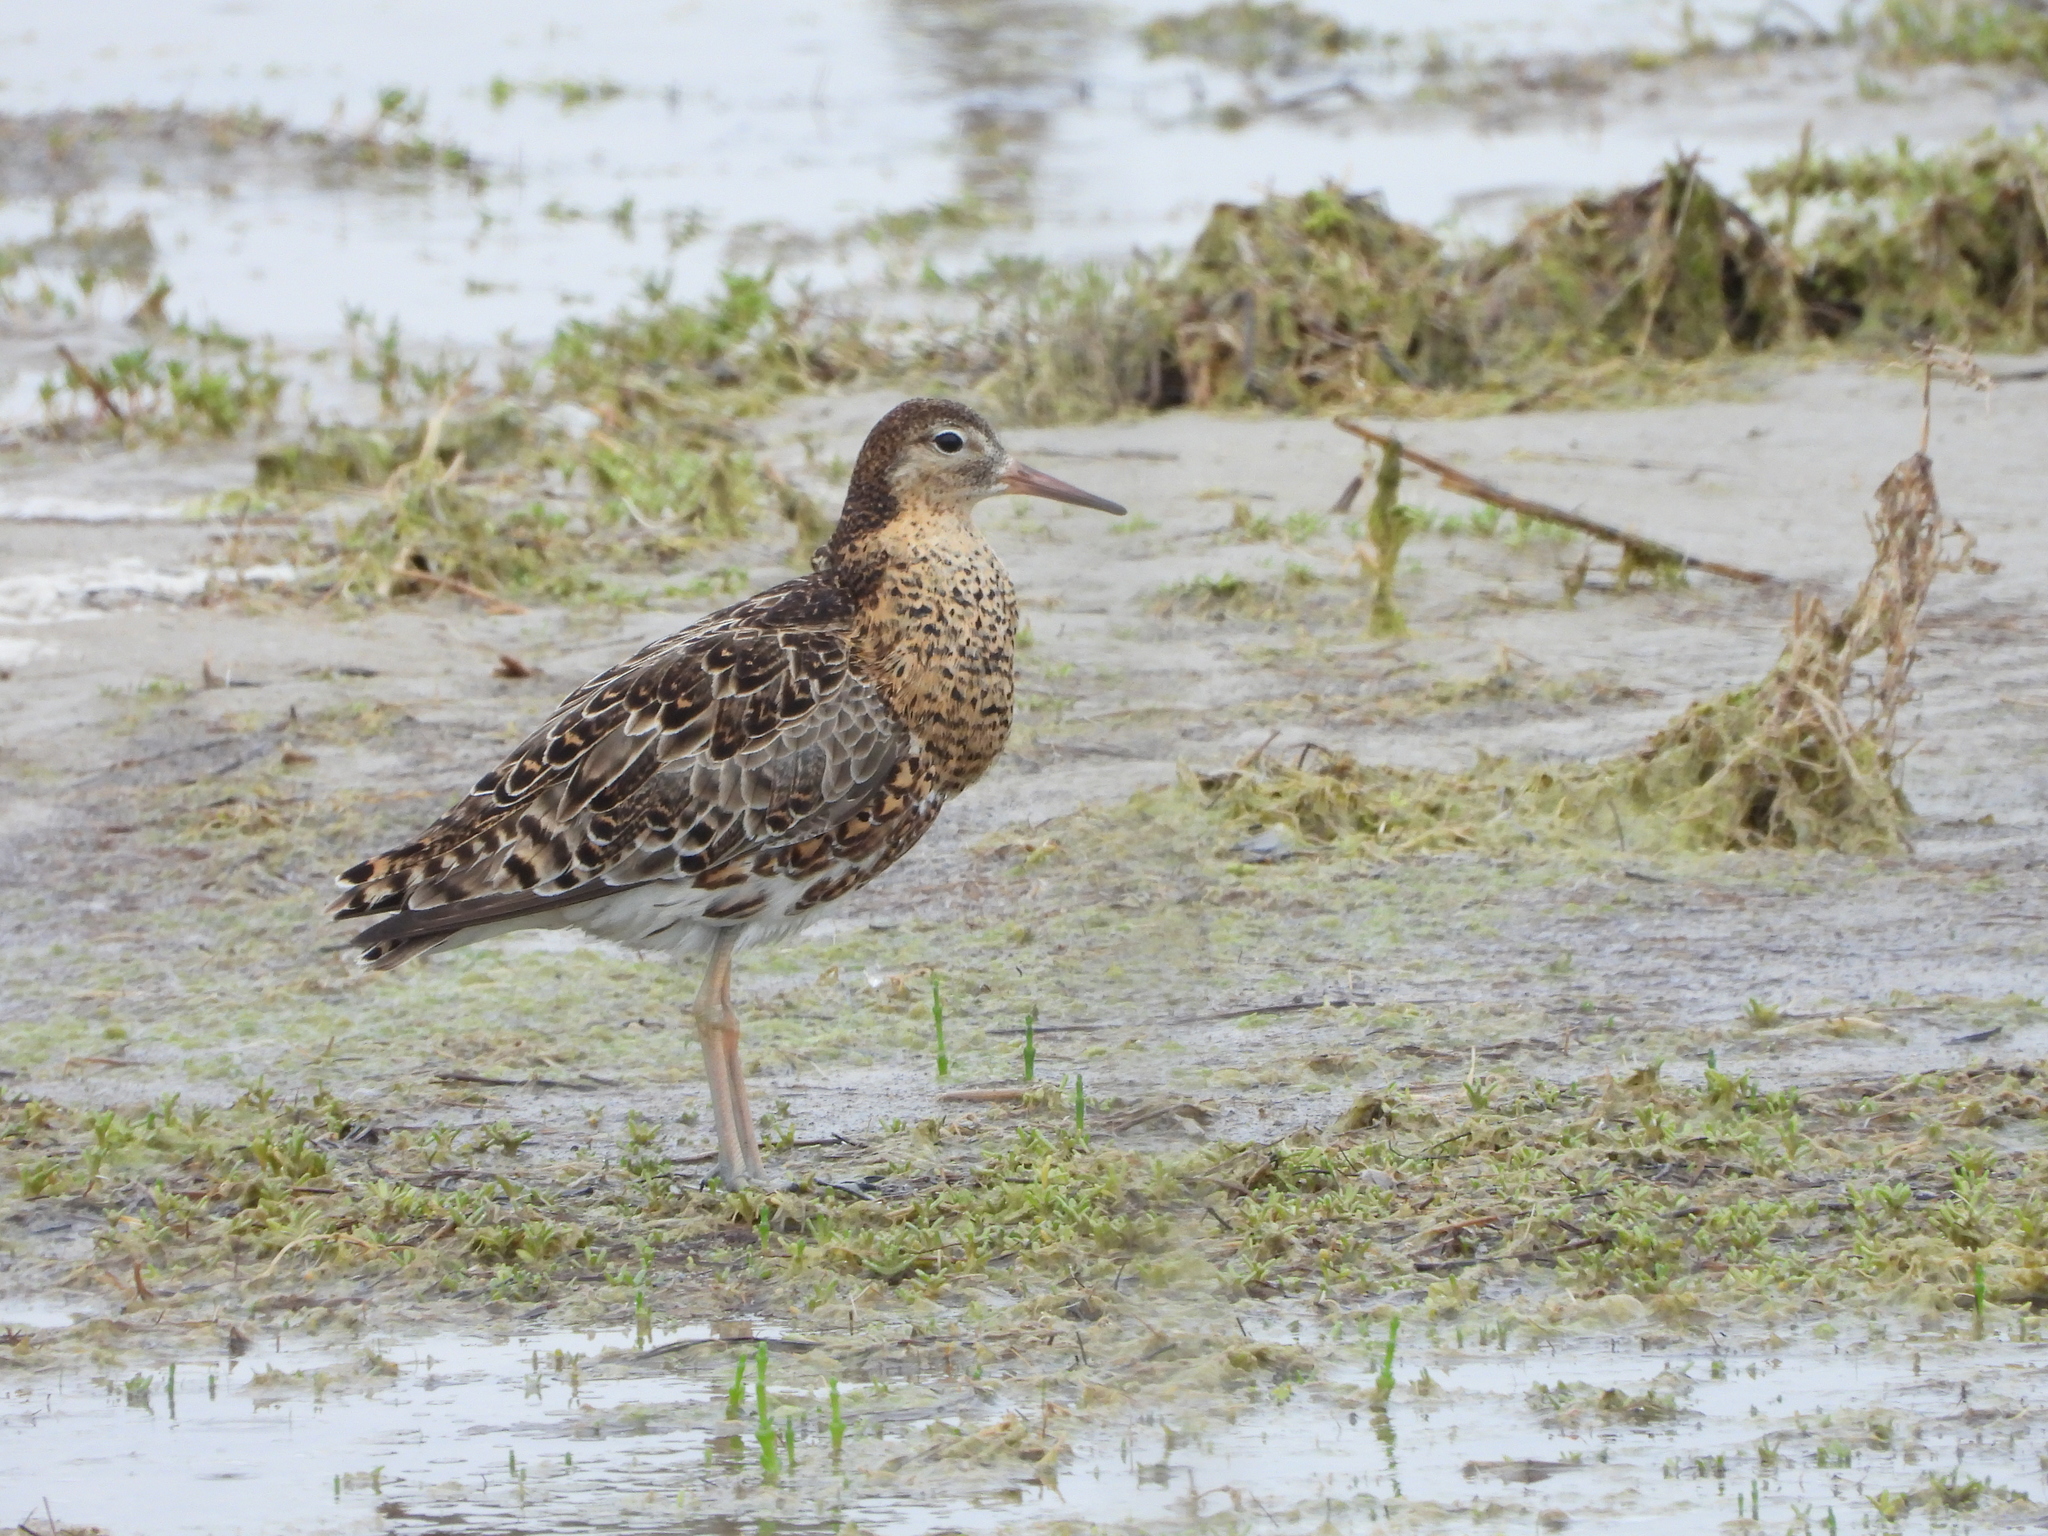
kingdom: Animalia
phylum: Chordata
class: Aves
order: Charadriiformes
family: Scolopacidae
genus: Calidris
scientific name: Calidris pugnax
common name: Ruff
